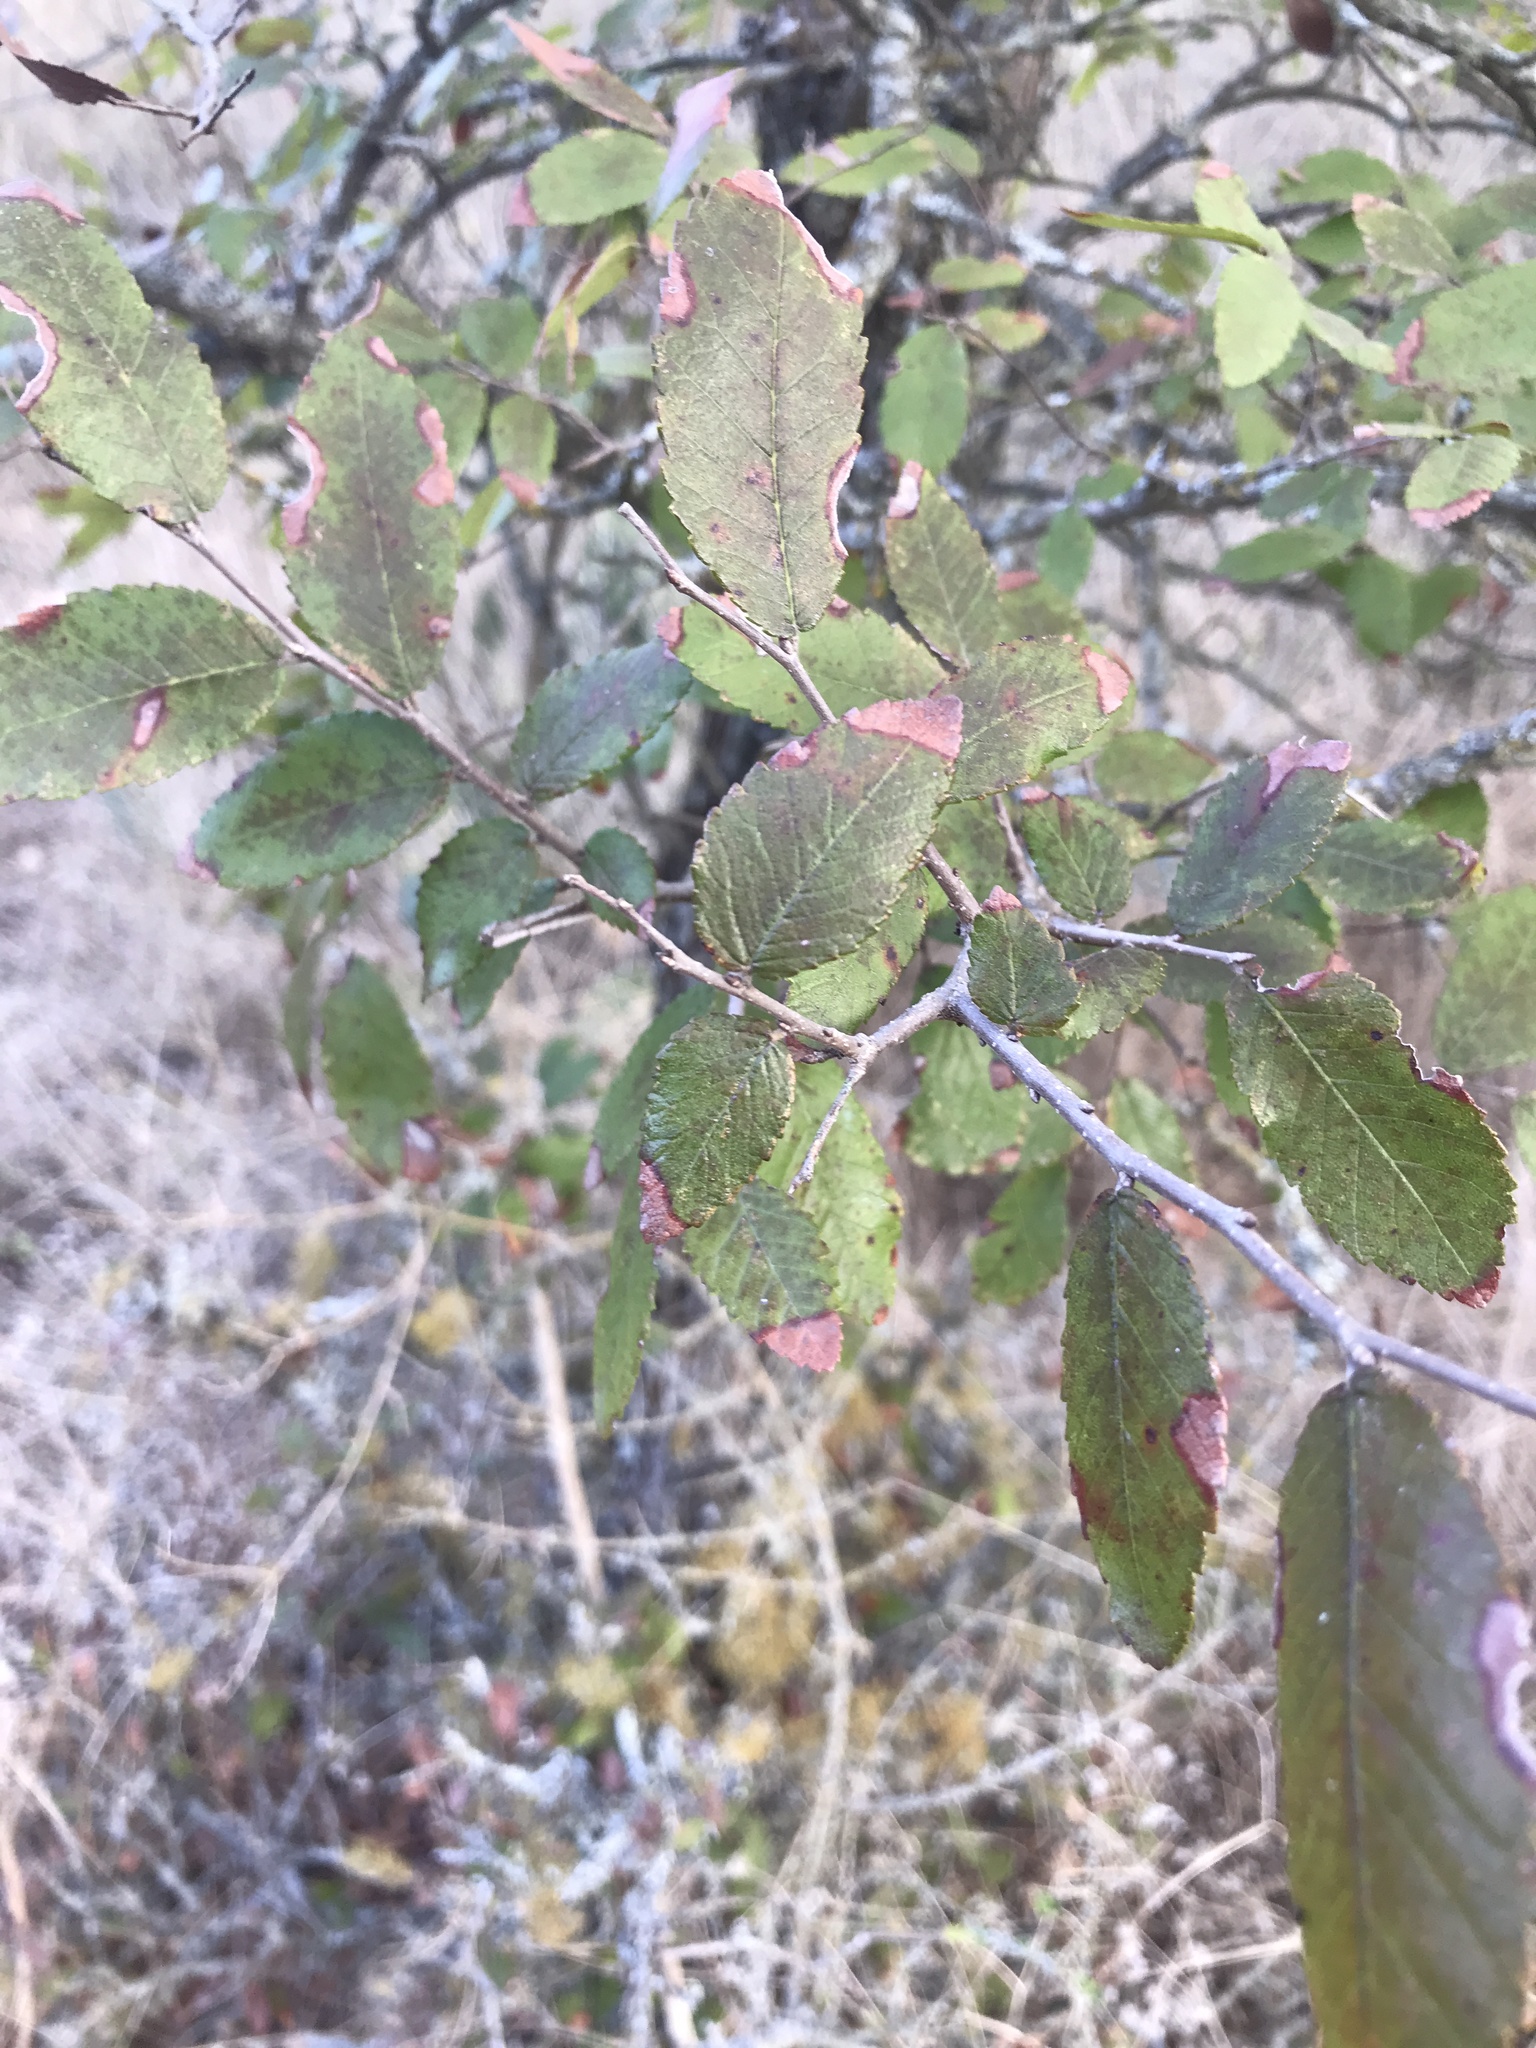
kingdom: Plantae
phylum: Tracheophyta
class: Magnoliopsida
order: Rosales
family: Ulmaceae
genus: Ulmus
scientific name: Ulmus crassifolia
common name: Basket elm
